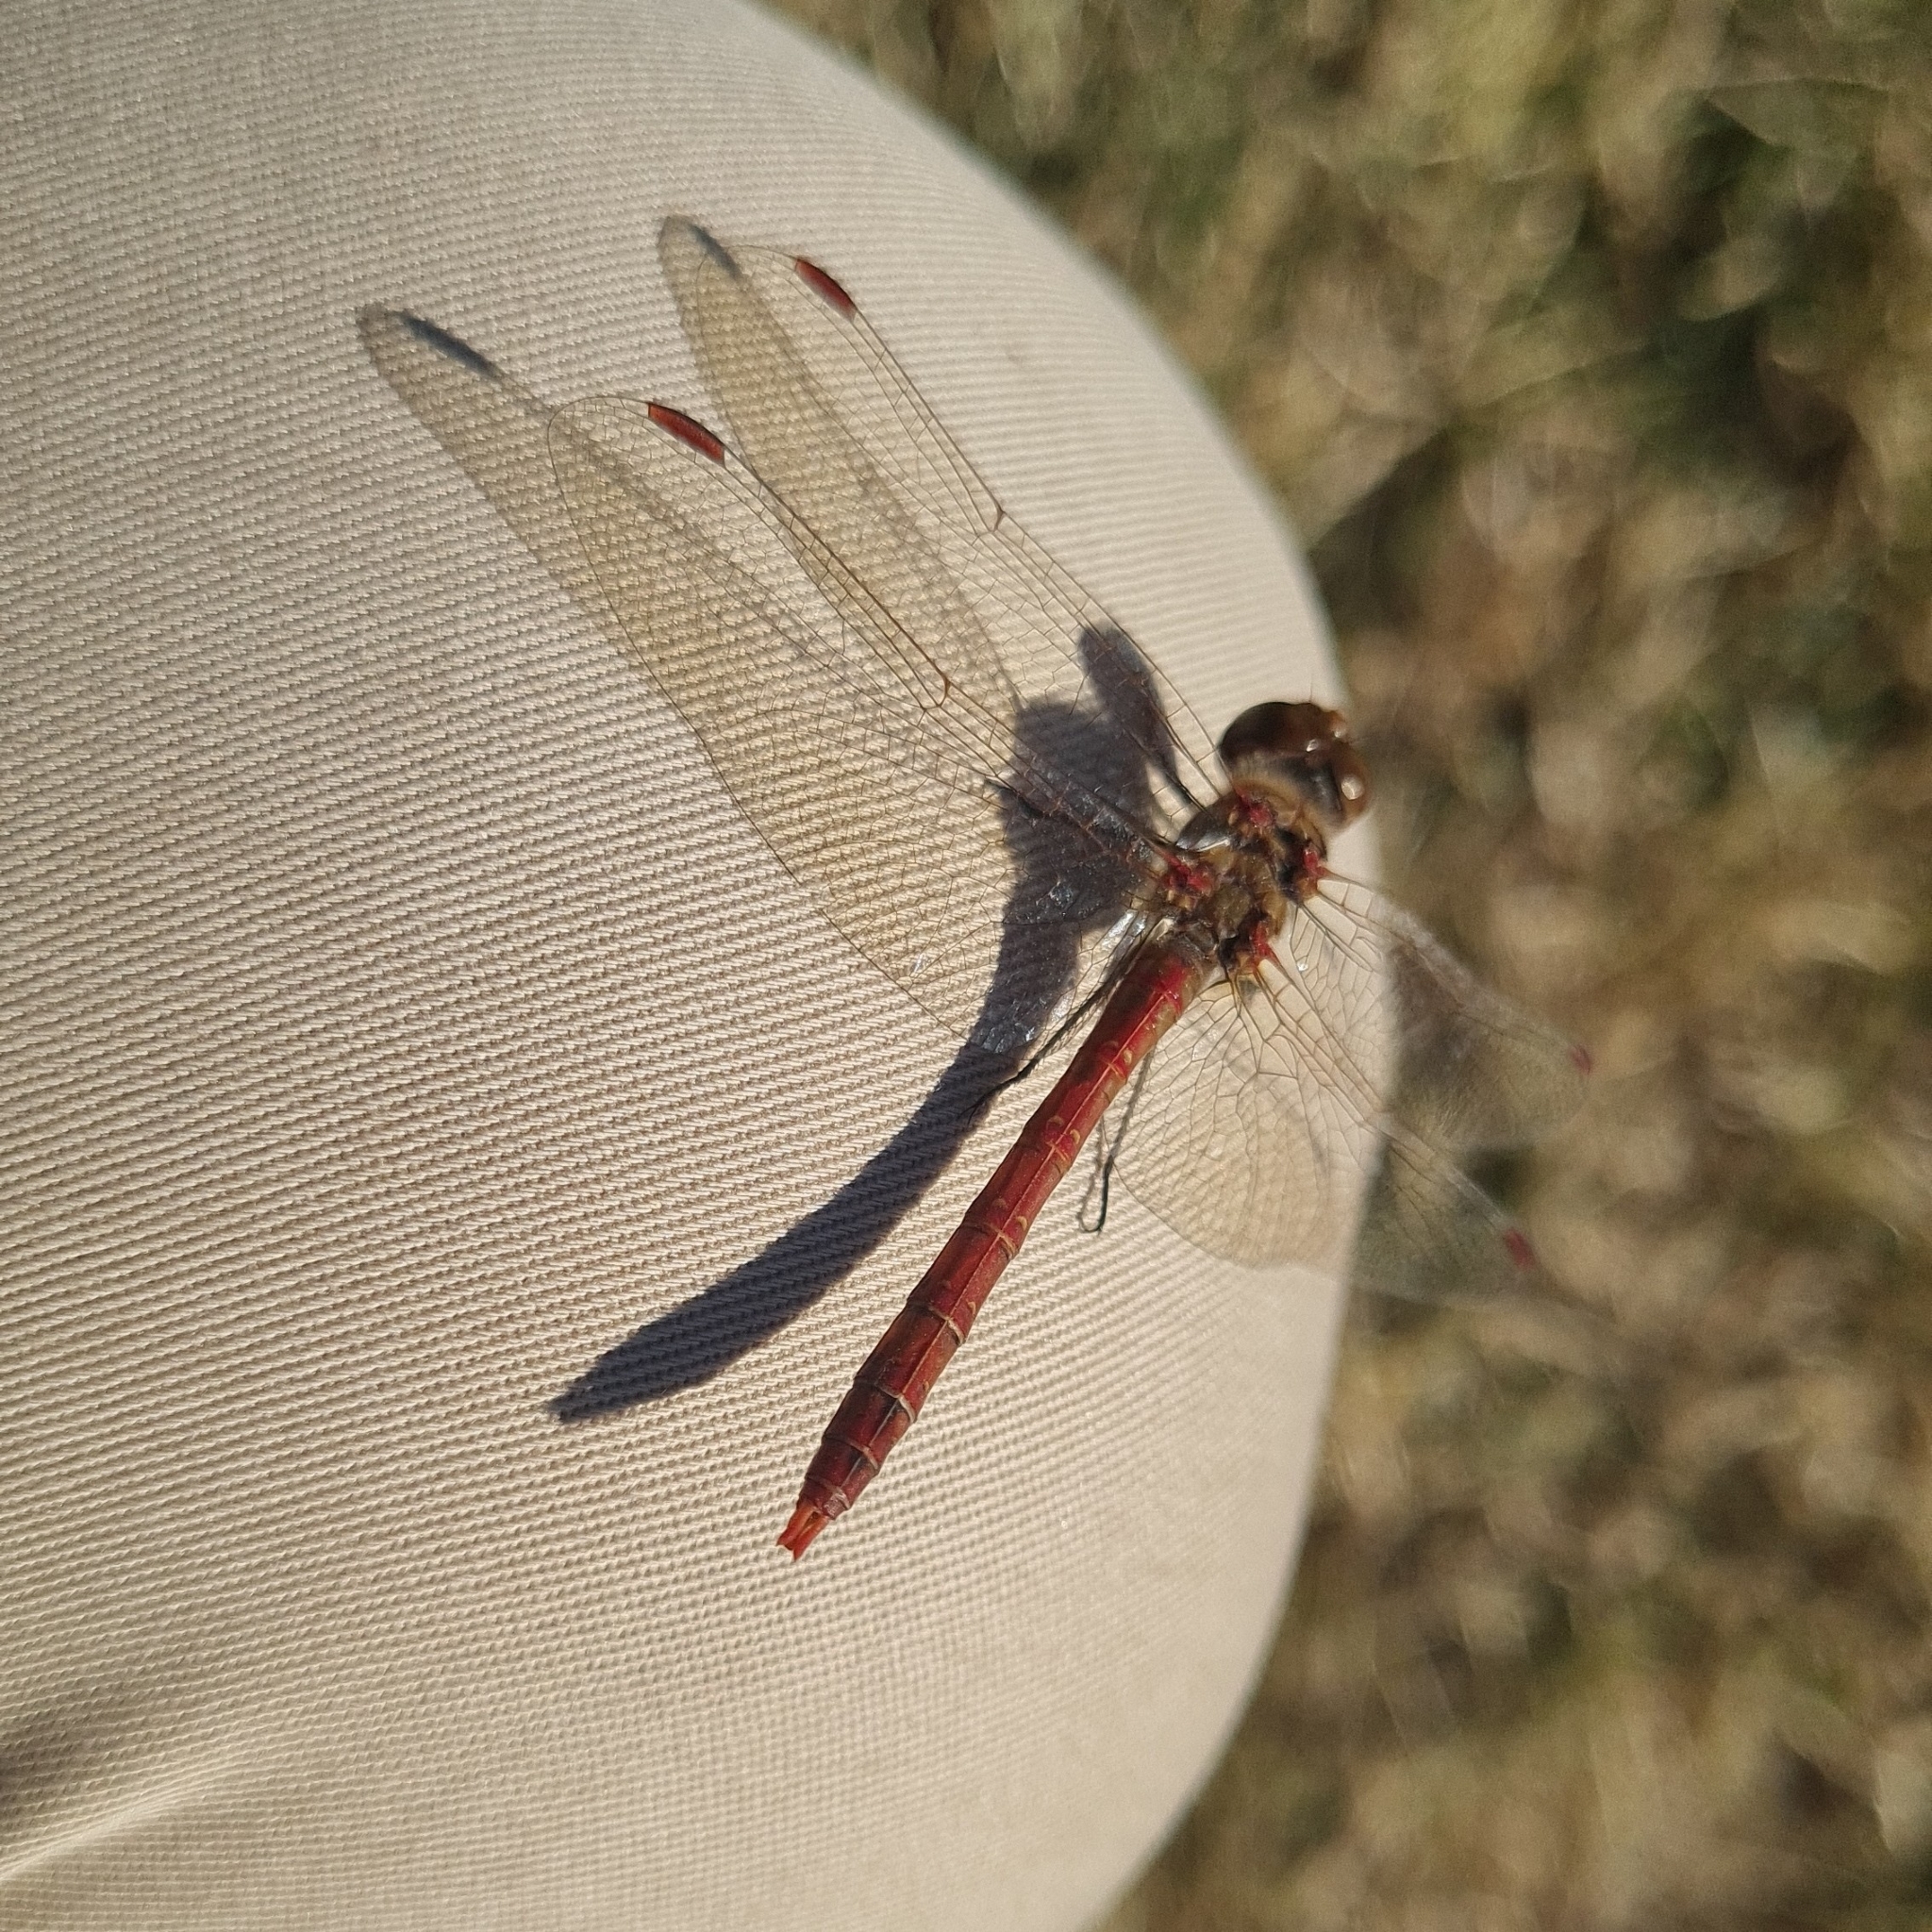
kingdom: Animalia
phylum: Arthropoda
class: Insecta
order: Odonata
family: Libellulidae
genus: Sympetrum
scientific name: Sympetrum striolatum
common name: Common darter
